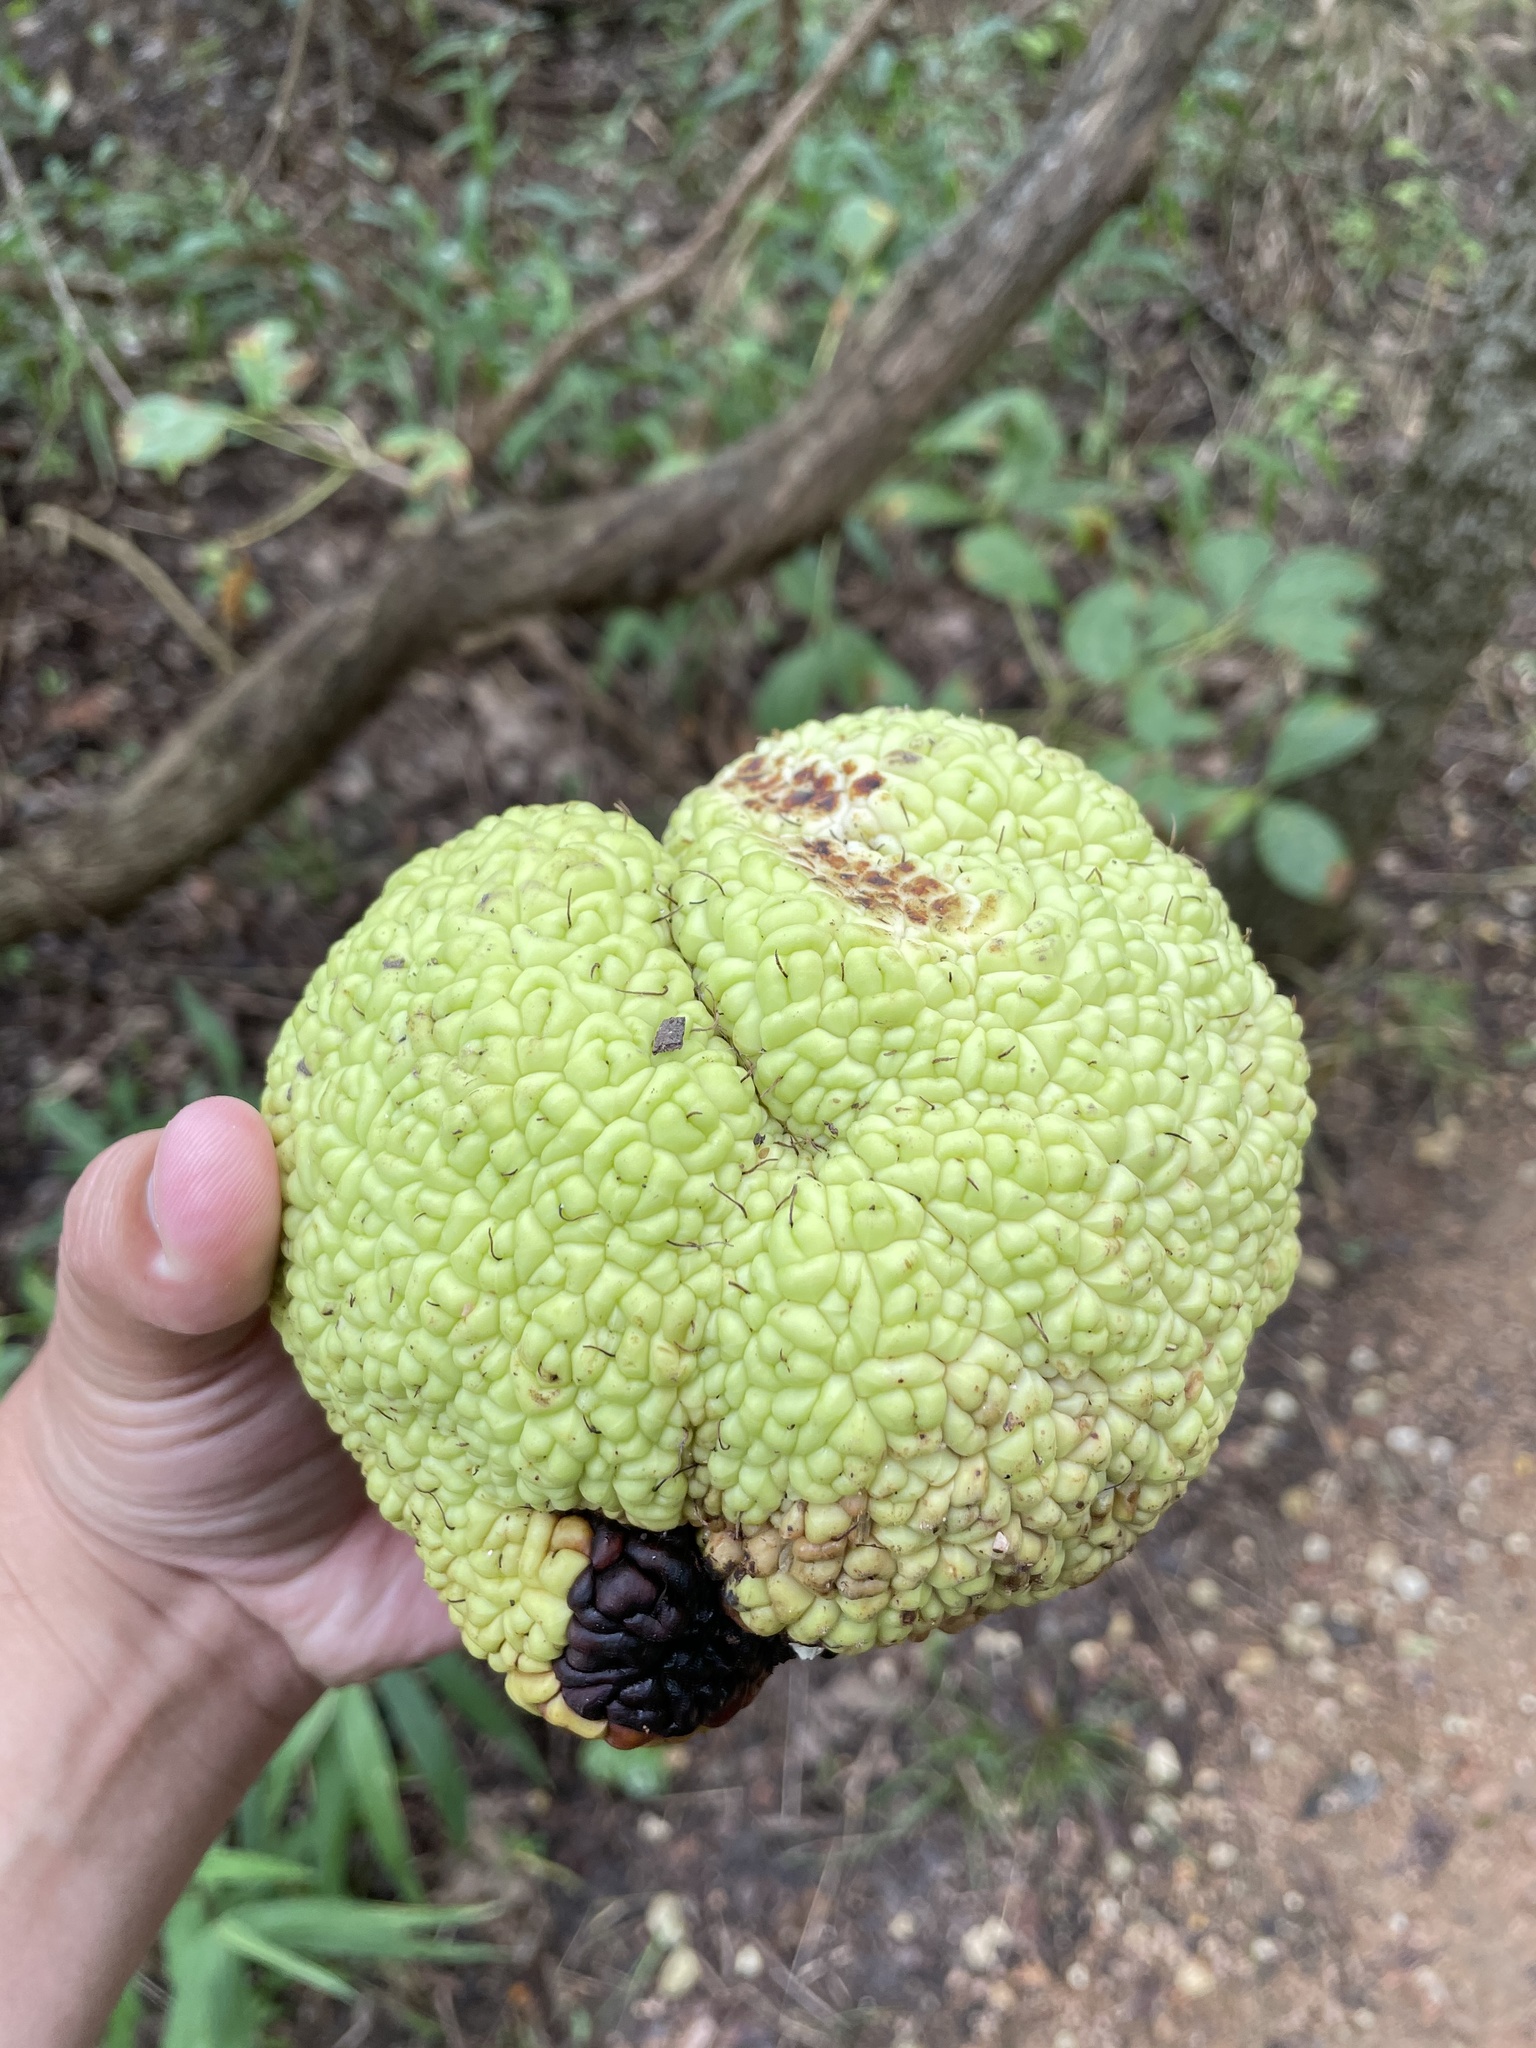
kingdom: Plantae
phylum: Tracheophyta
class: Magnoliopsida
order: Rosales
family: Moraceae
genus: Maclura
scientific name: Maclura pomifera
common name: Osage-orange
